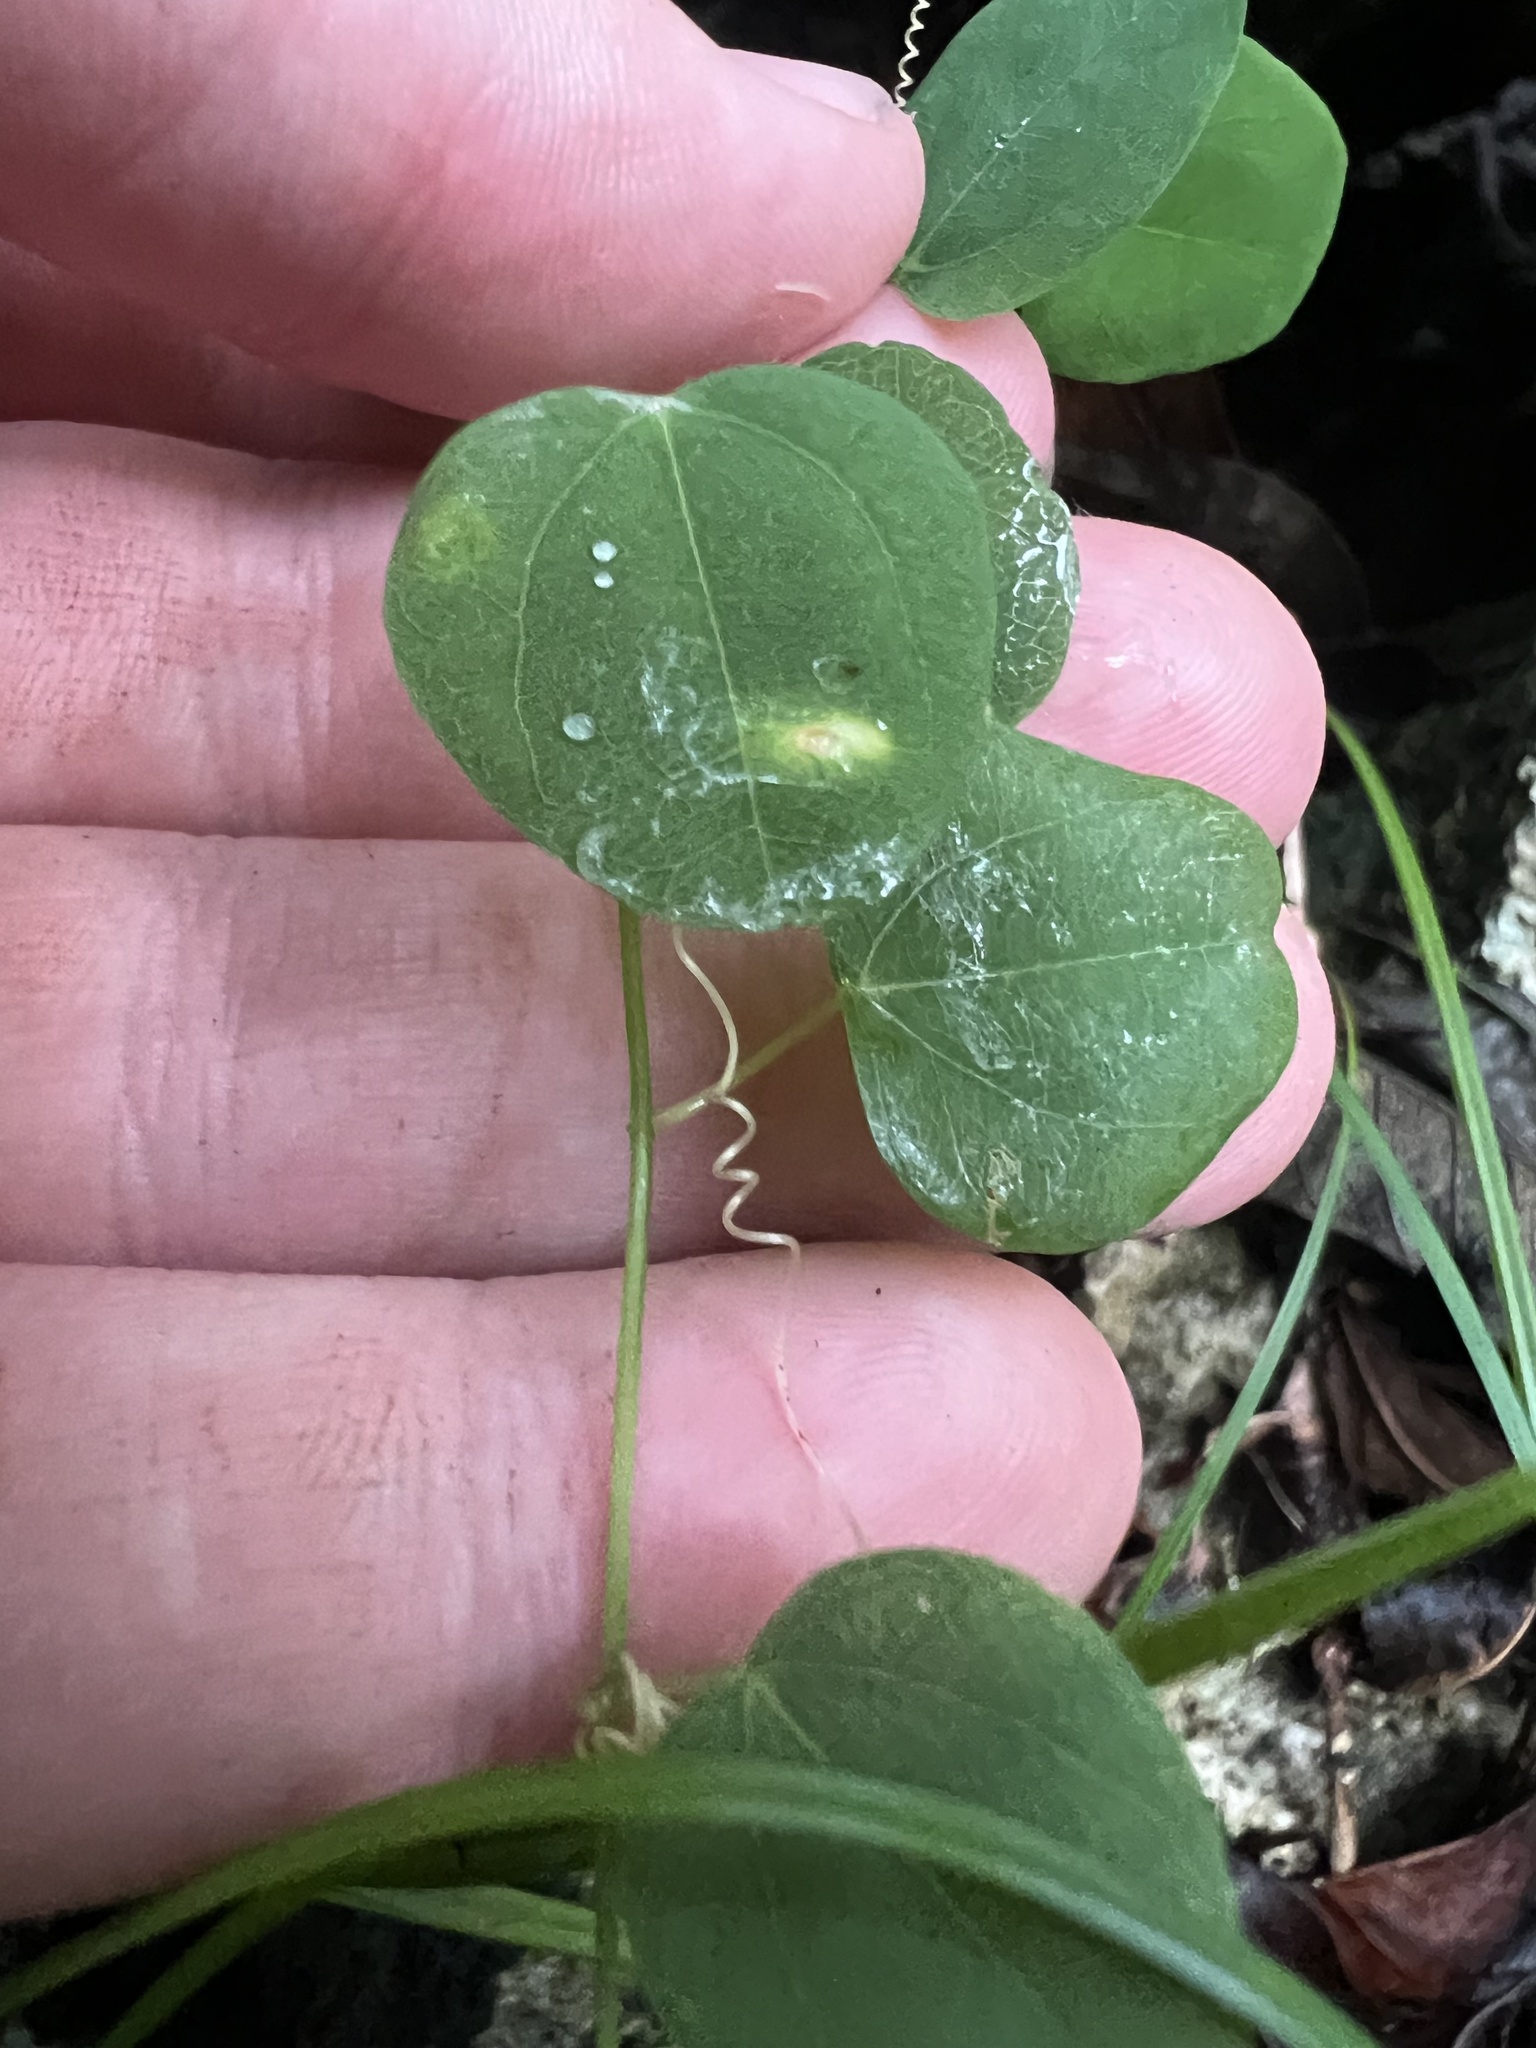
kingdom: Plantae
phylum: Tracheophyta
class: Magnoliopsida
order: Malpighiales
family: Passifloraceae
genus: Passiflora
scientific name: Passiflora cupraea
